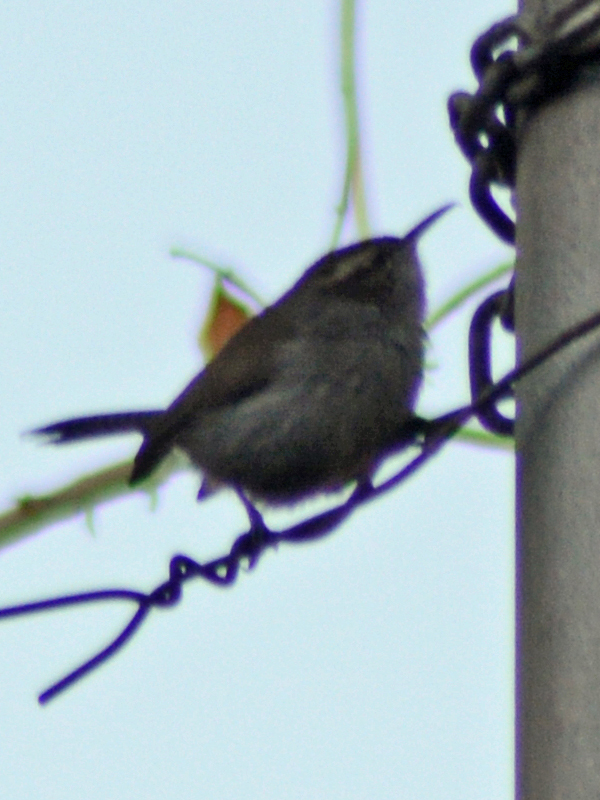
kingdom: Animalia
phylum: Chordata
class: Aves
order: Passeriformes
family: Troglodytidae
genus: Thryomanes
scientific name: Thryomanes bewickii
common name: Bewick's wren
